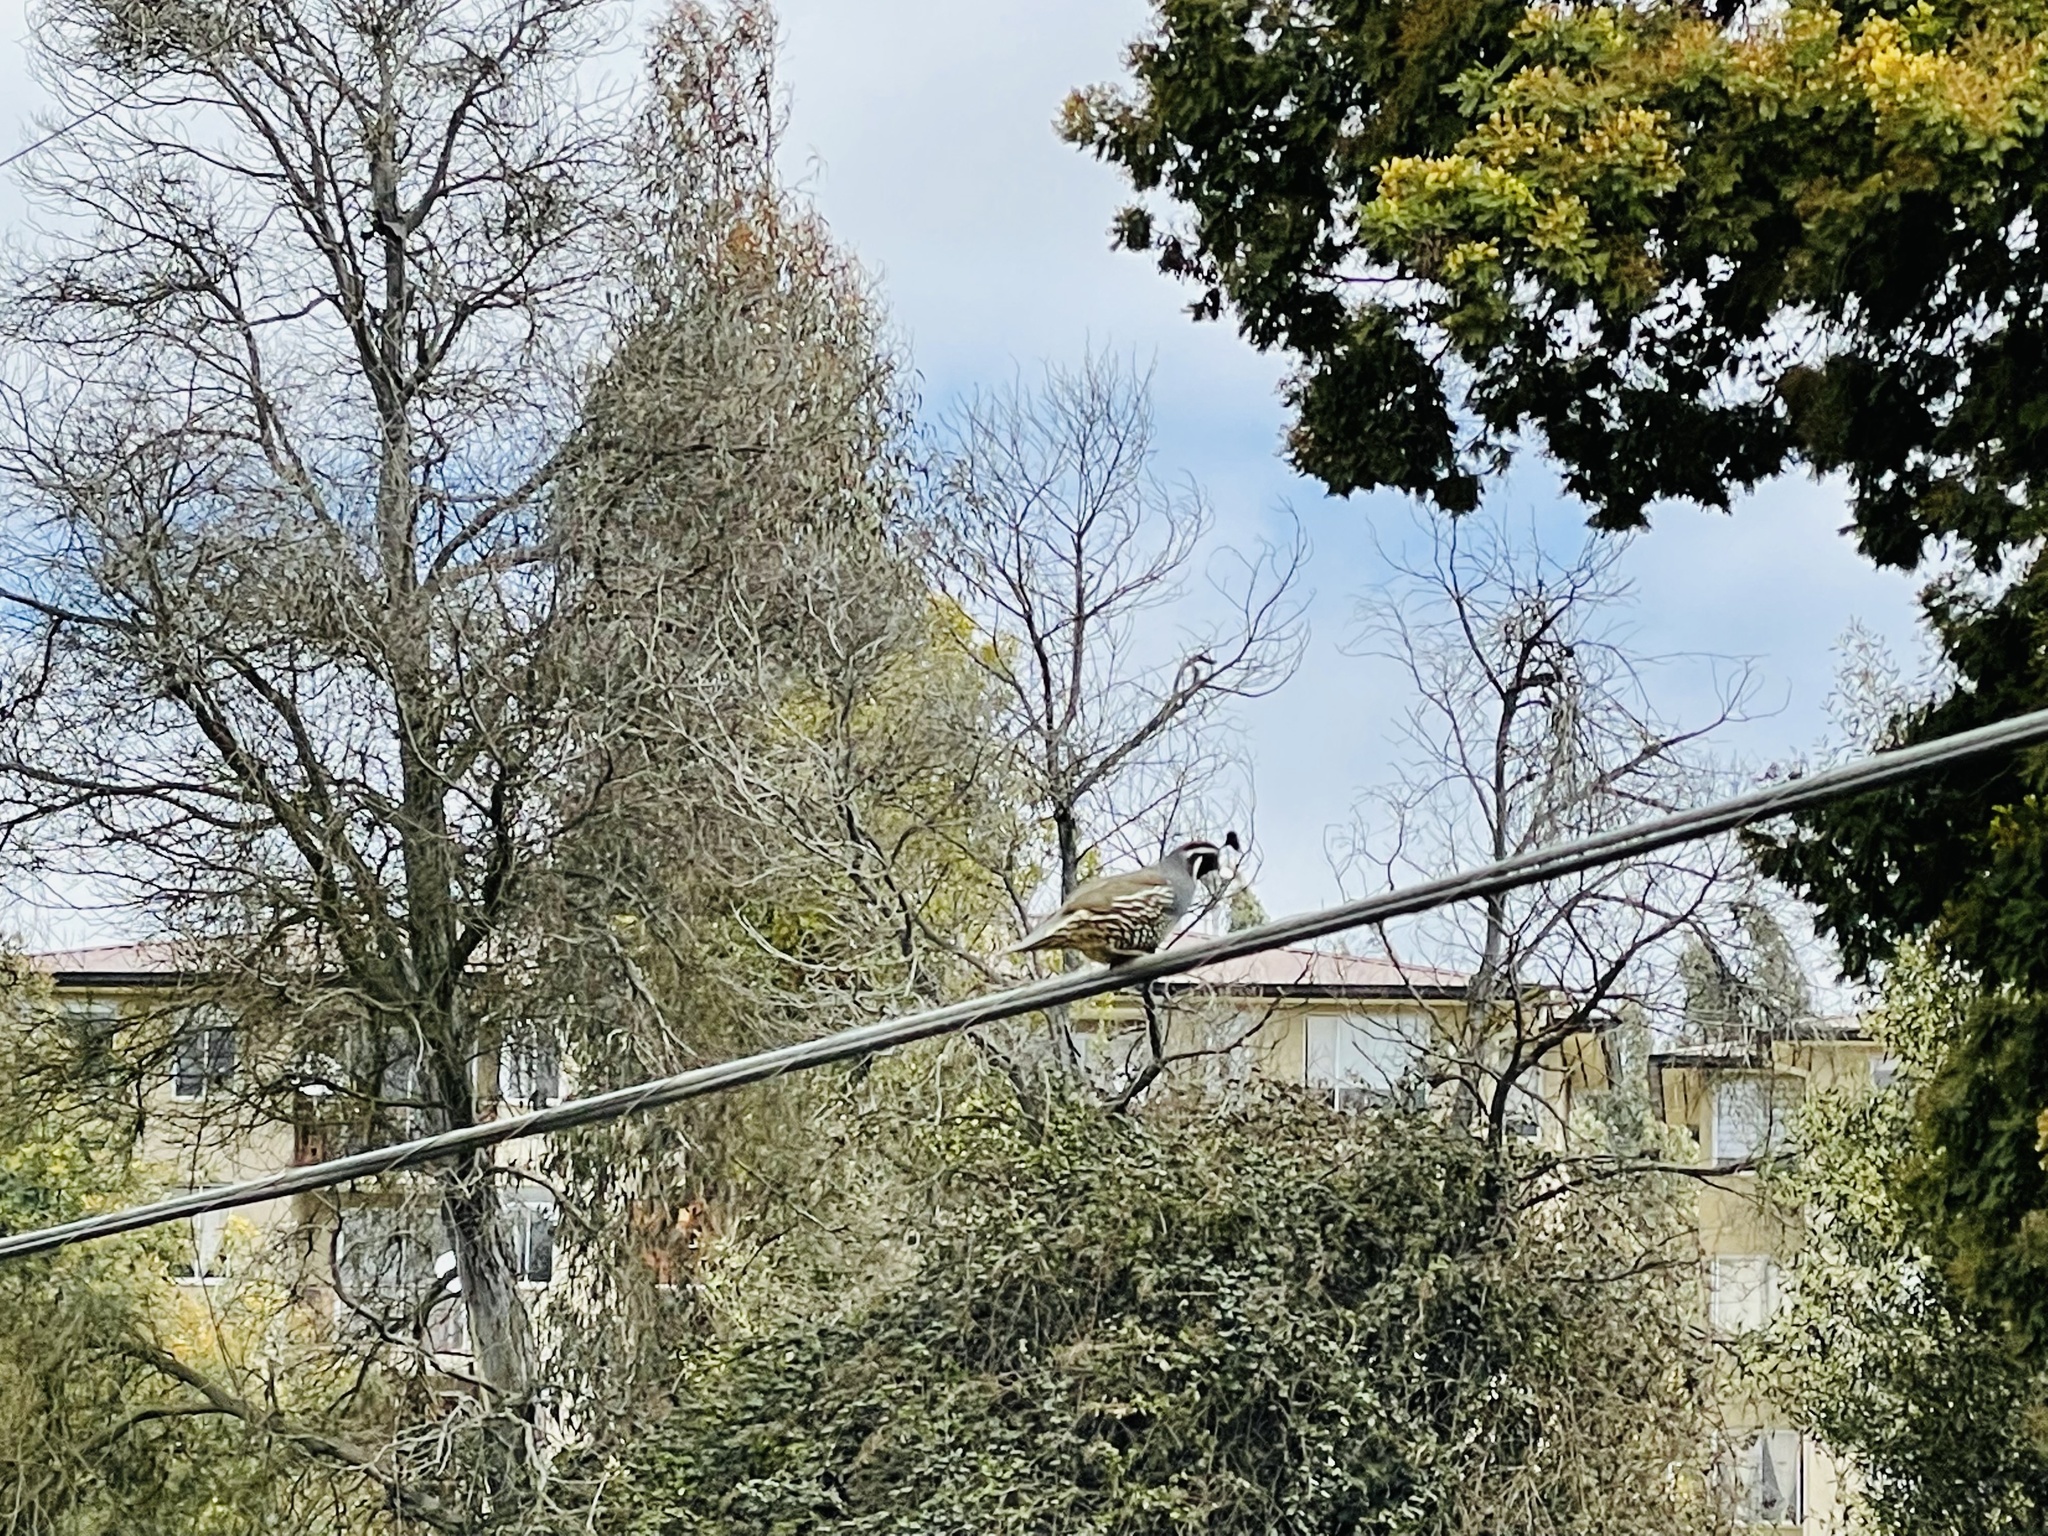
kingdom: Animalia
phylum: Chordata
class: Aves
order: Galliformes
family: Odontophoridae
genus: Callipepla
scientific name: Callipepla californica
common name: California quail
